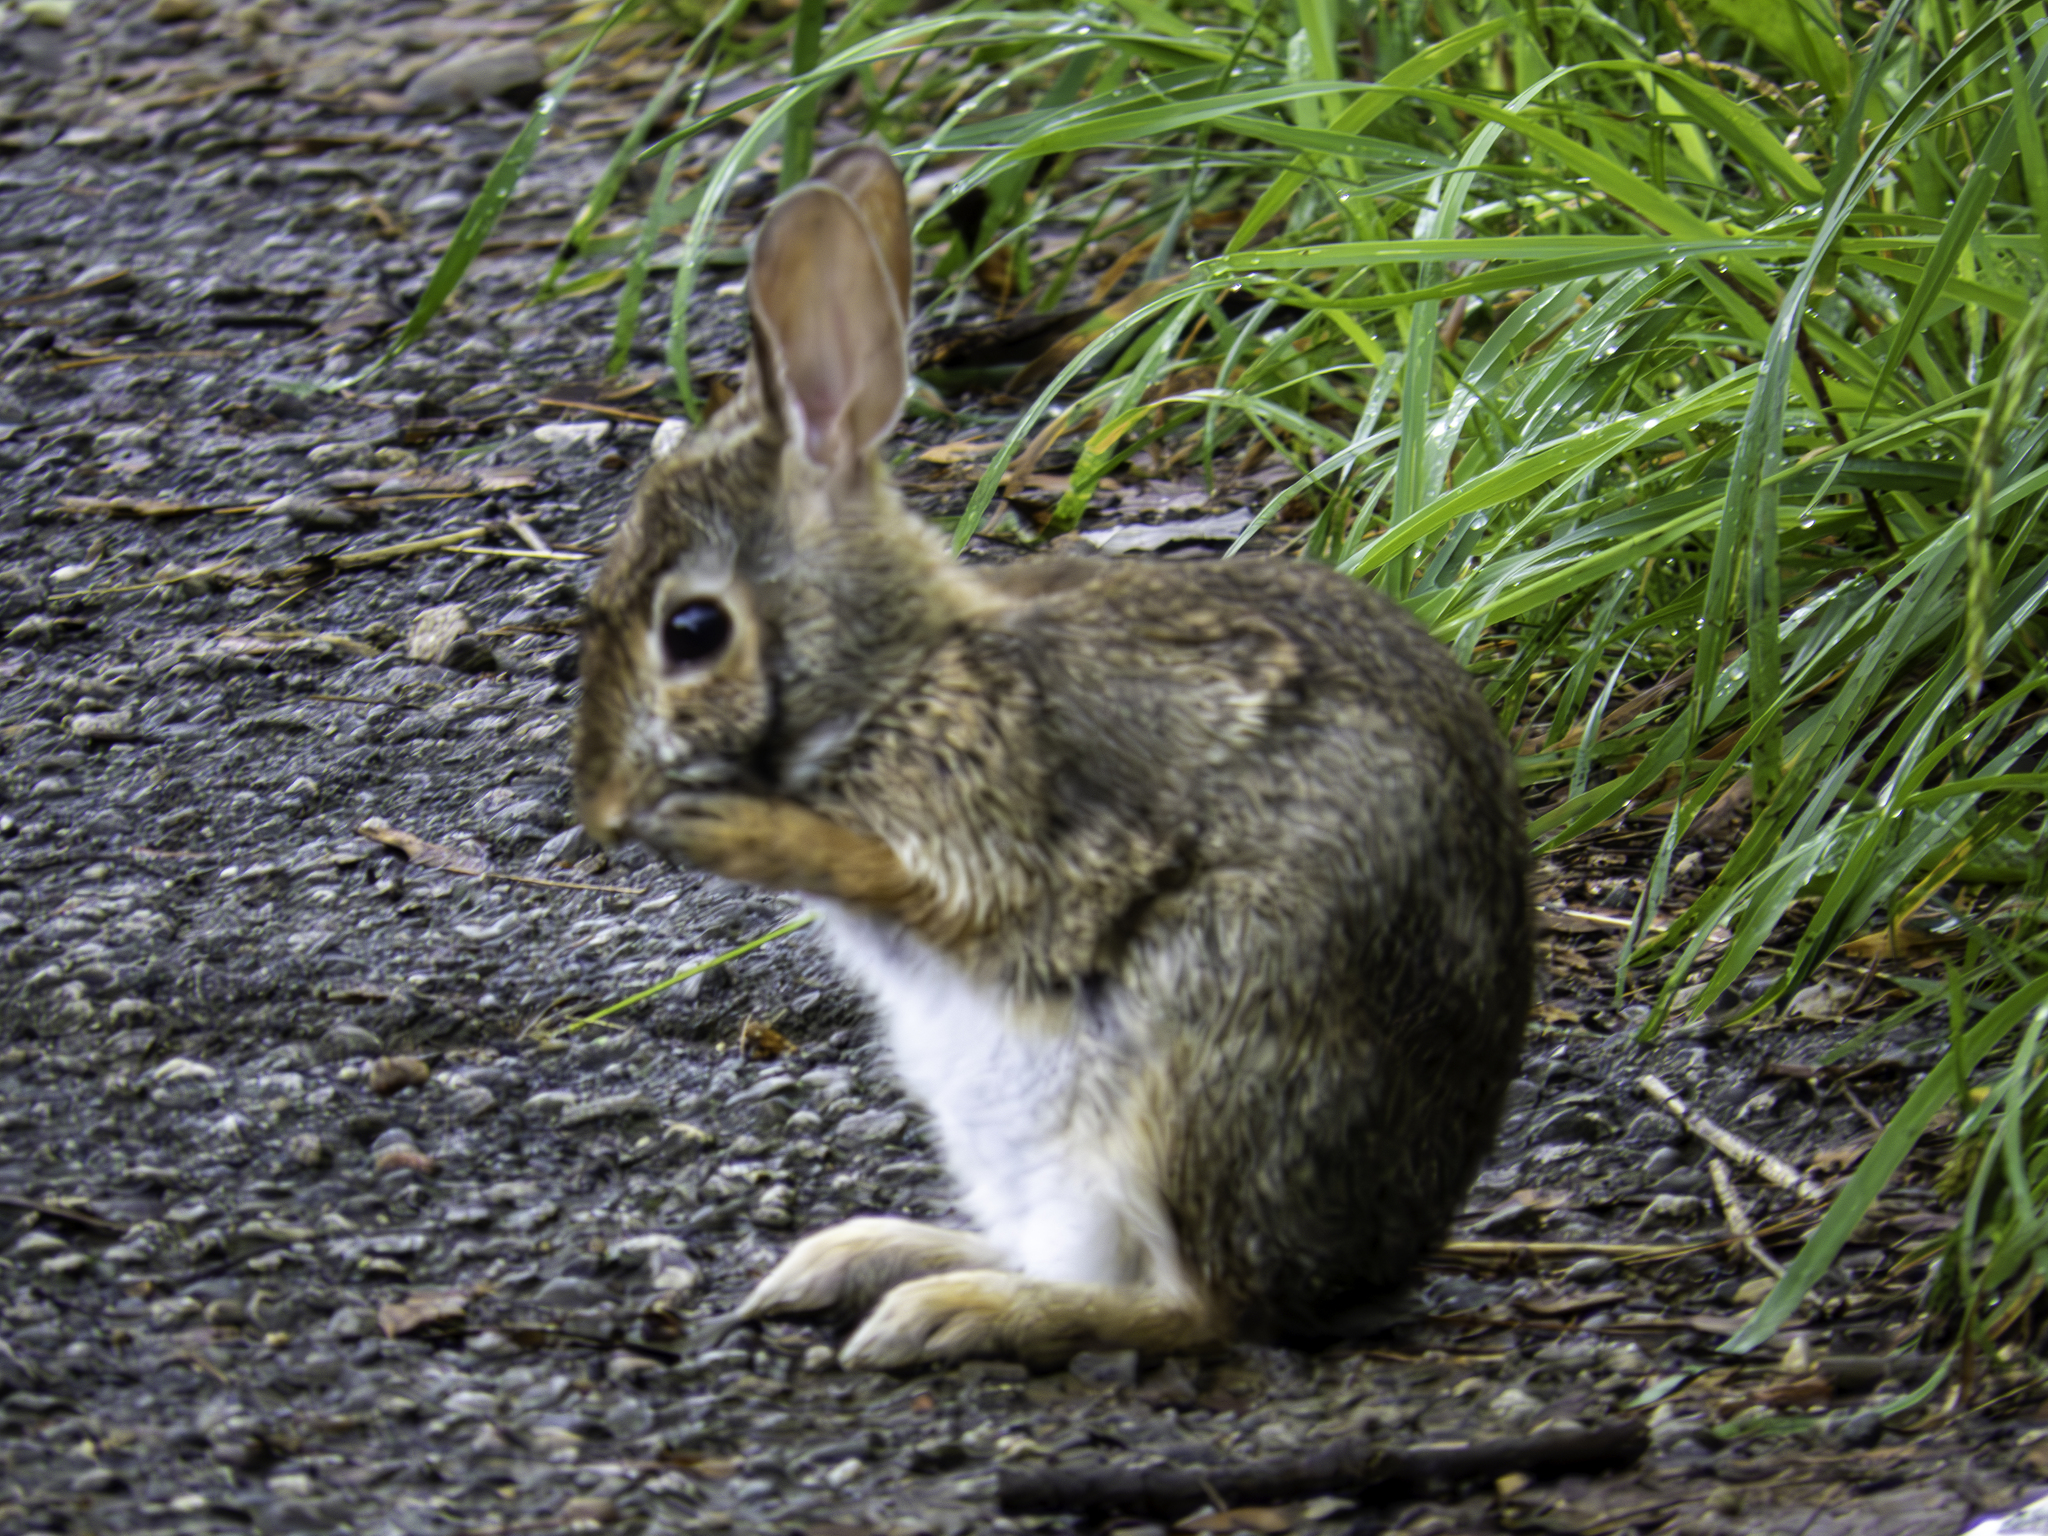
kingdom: Animalia
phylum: Chordata
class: Mammalia
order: Lagomorpha
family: Leporidae
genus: Sylvilagus
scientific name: Sylvilagus floridanus
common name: Eastern cottontail
